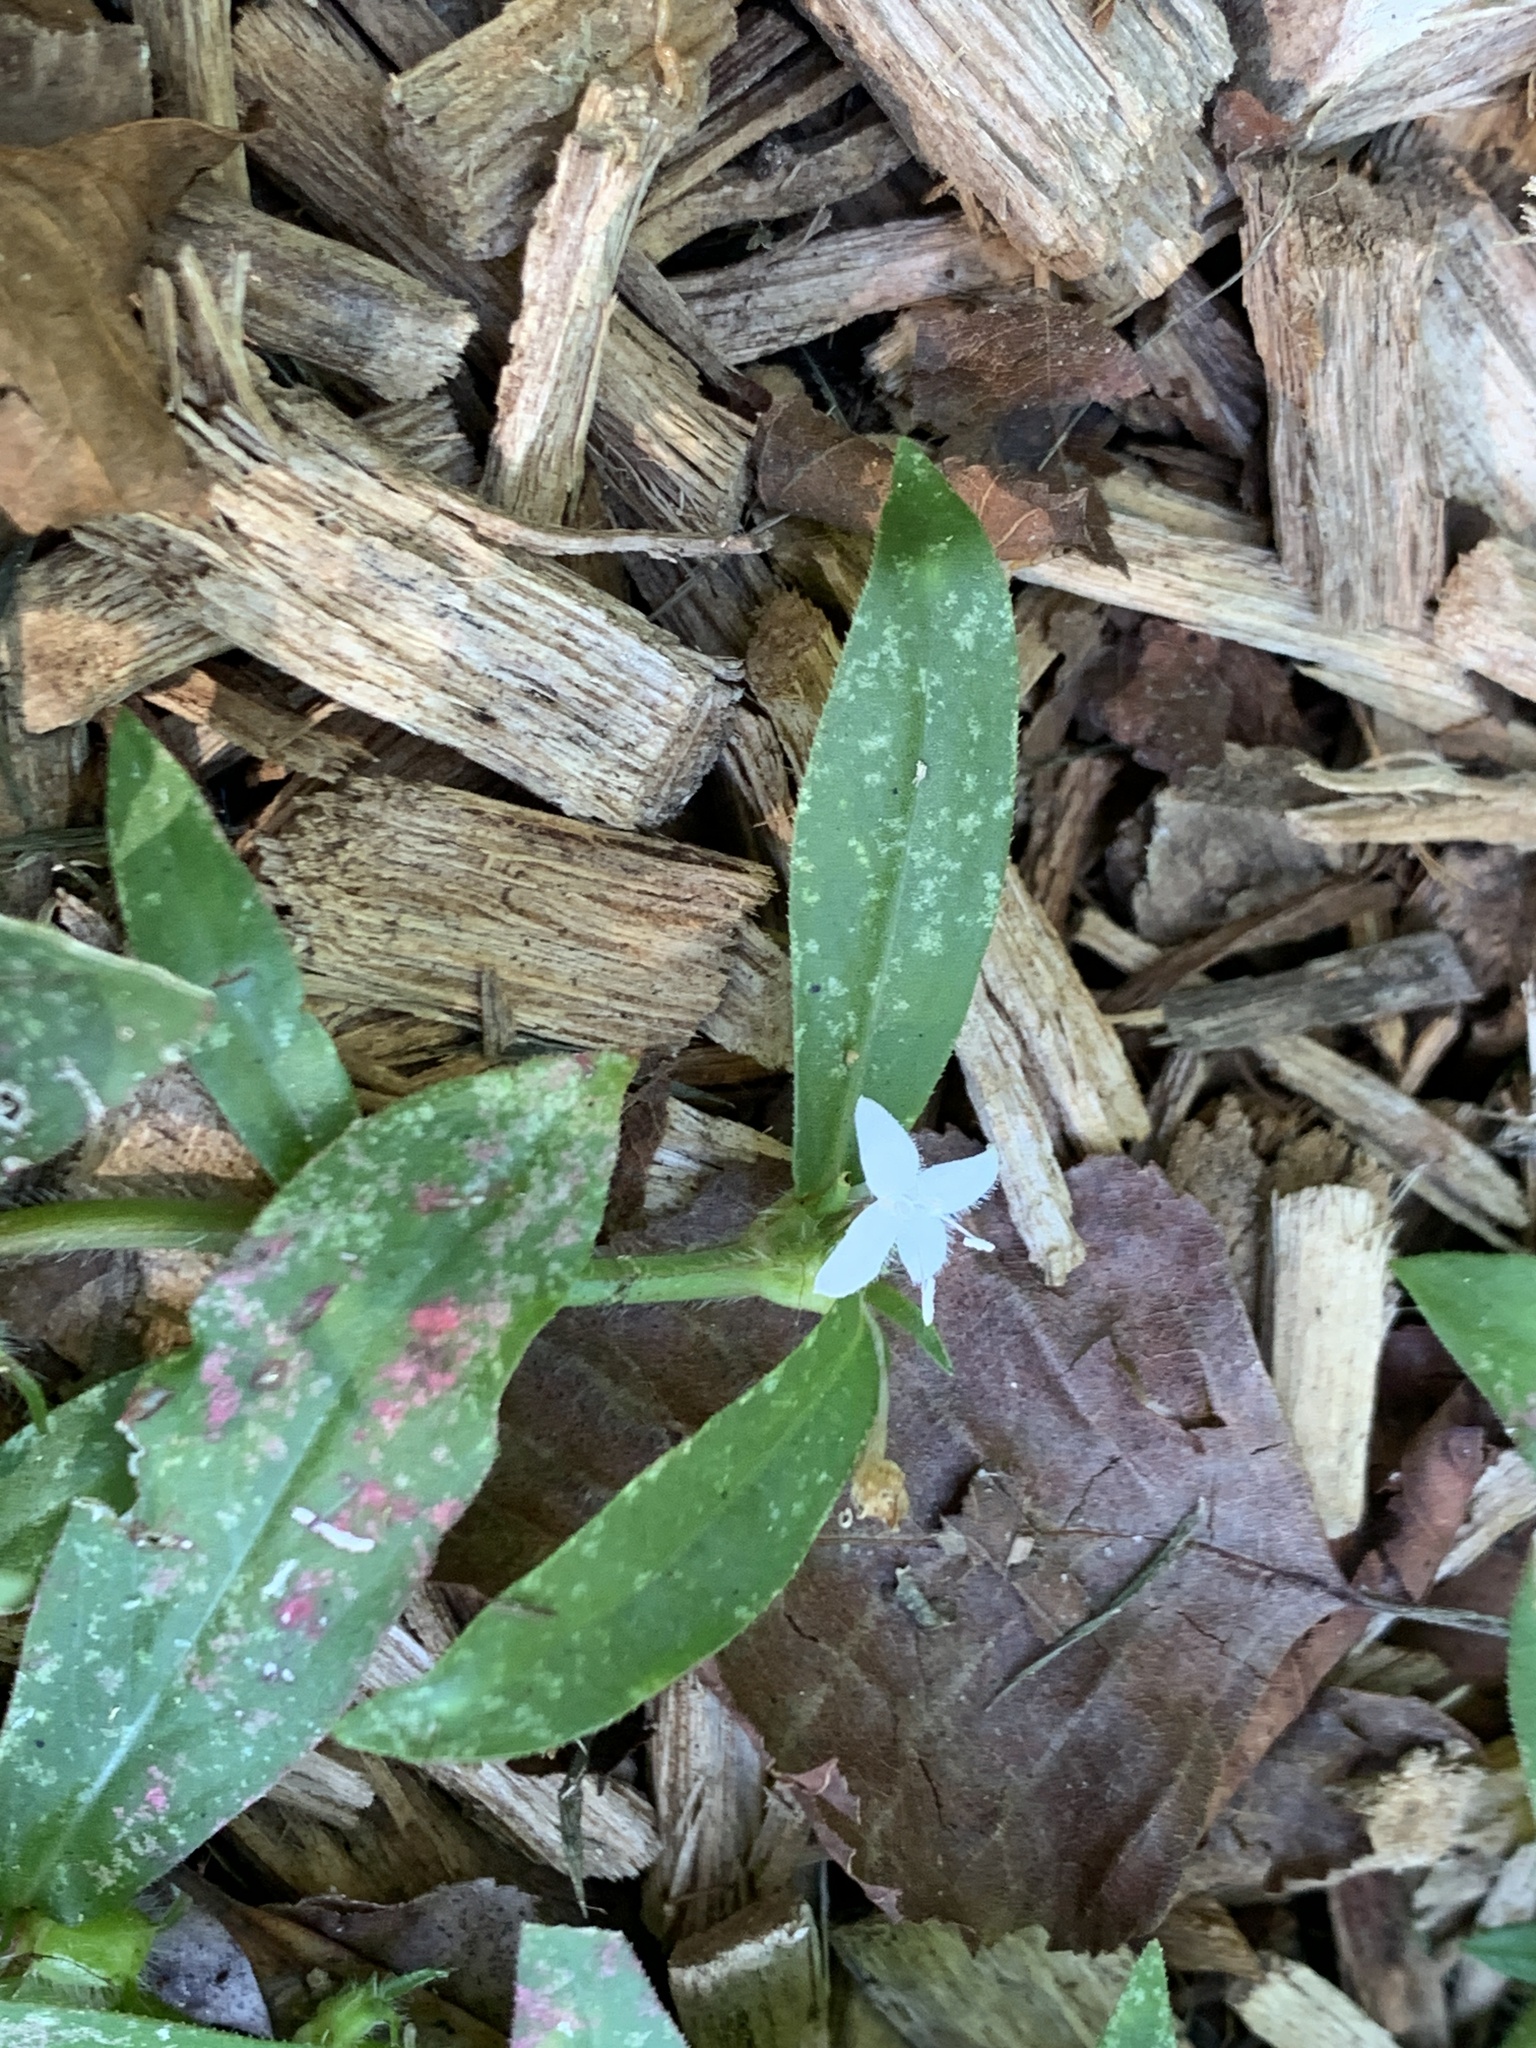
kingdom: Plantae
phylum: Tracheophyta
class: Magnoliopsida
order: Gentianales
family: Rubiaceae
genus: Diodia
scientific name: Diodia virginiana
